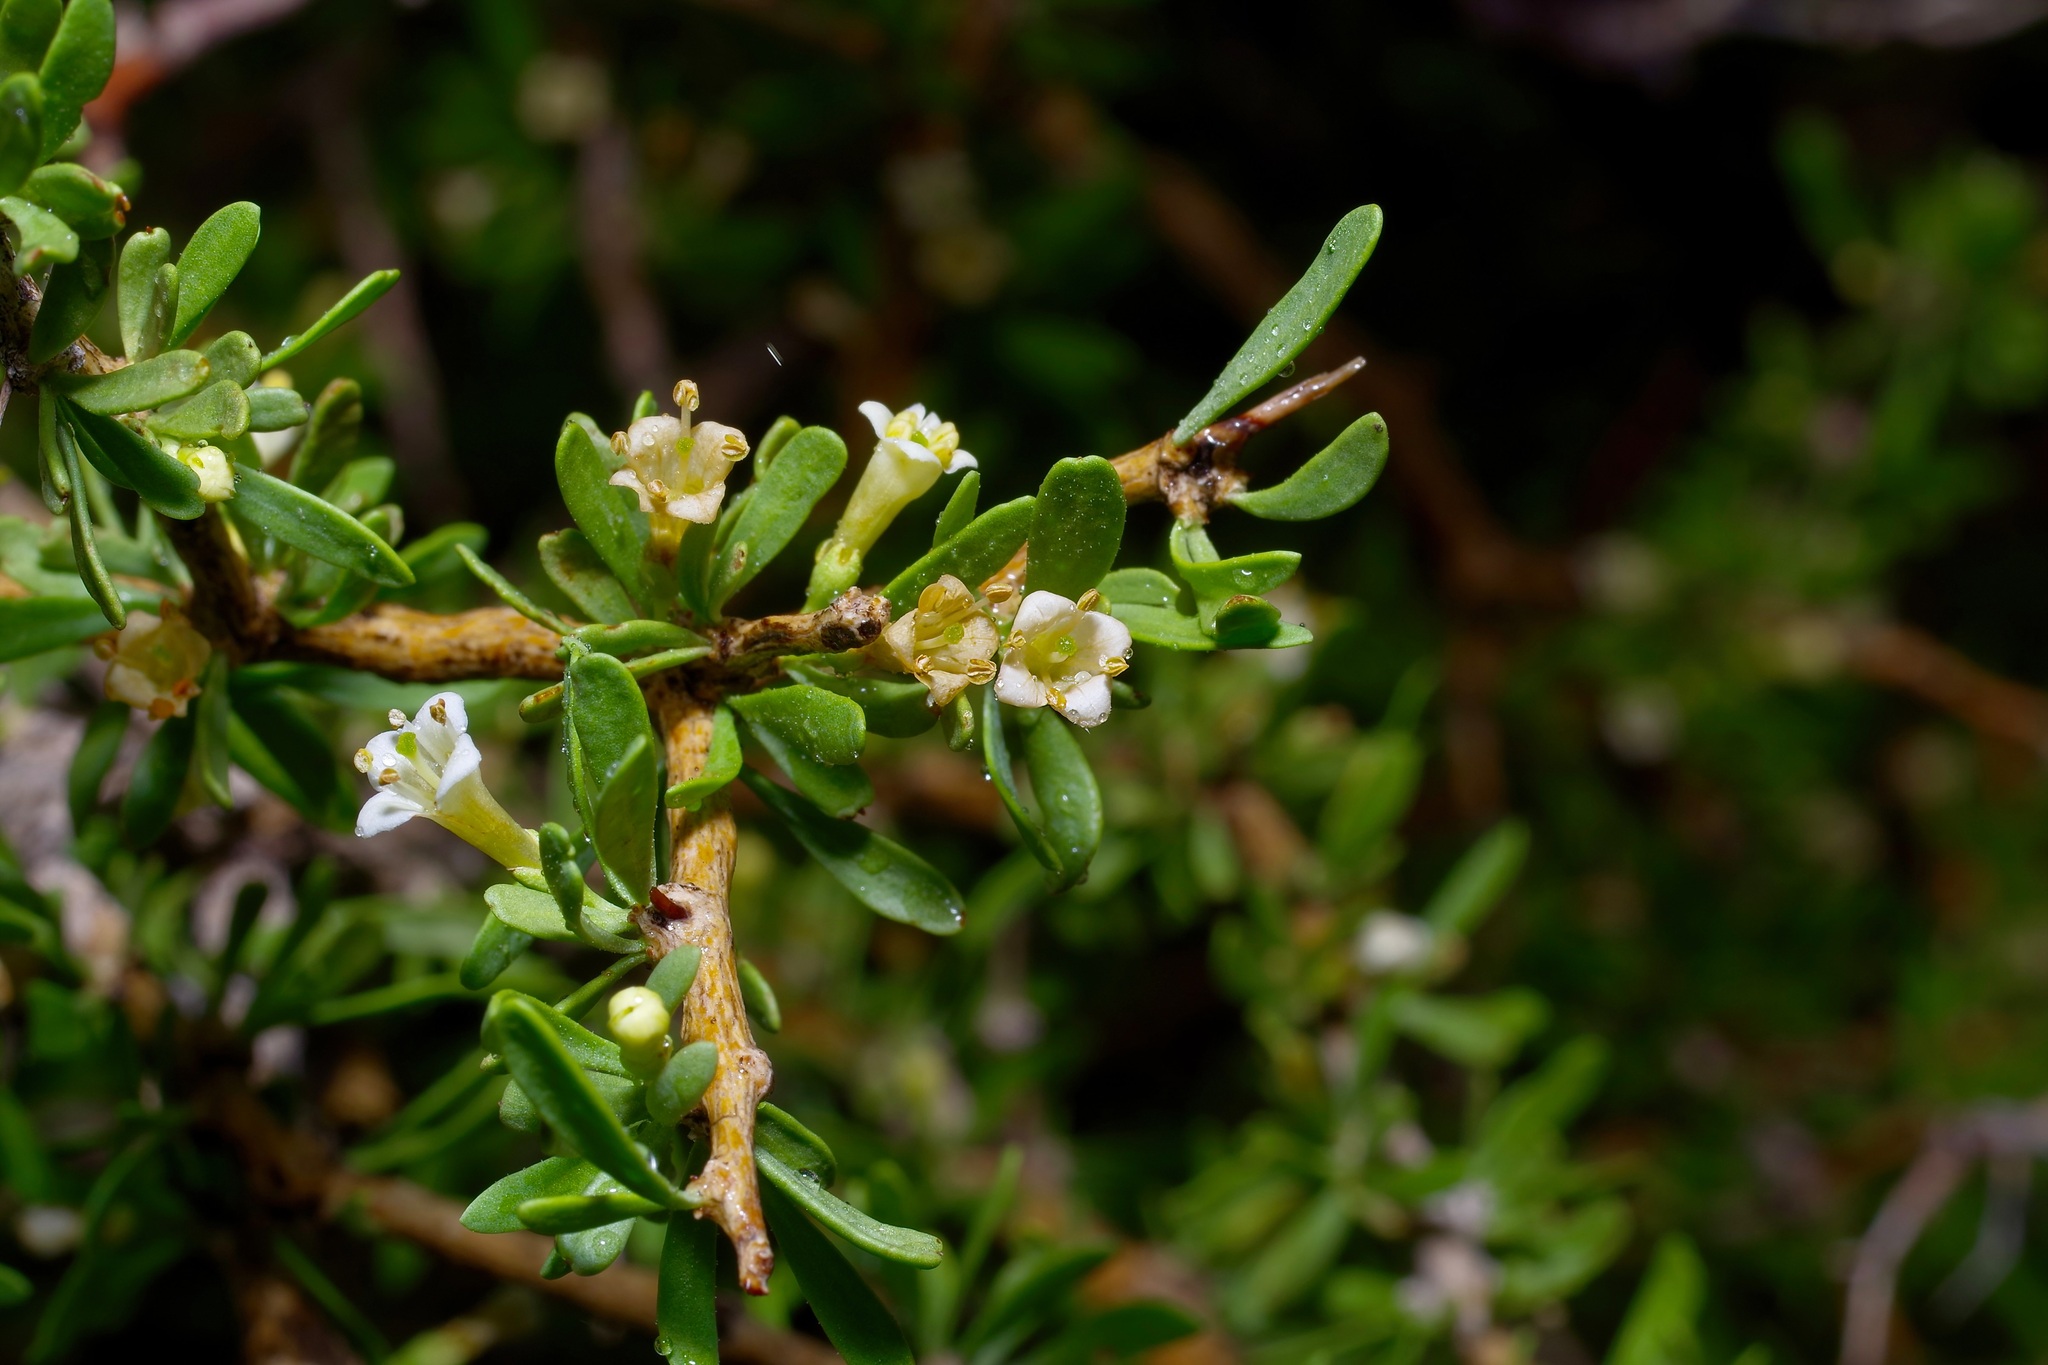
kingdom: Plantae
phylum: Tracheophyta
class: Magnoliopsida
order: Solanales
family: Solanaceae
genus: Lycium
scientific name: Lycium berlandieri
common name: Berlandier wolfberry
